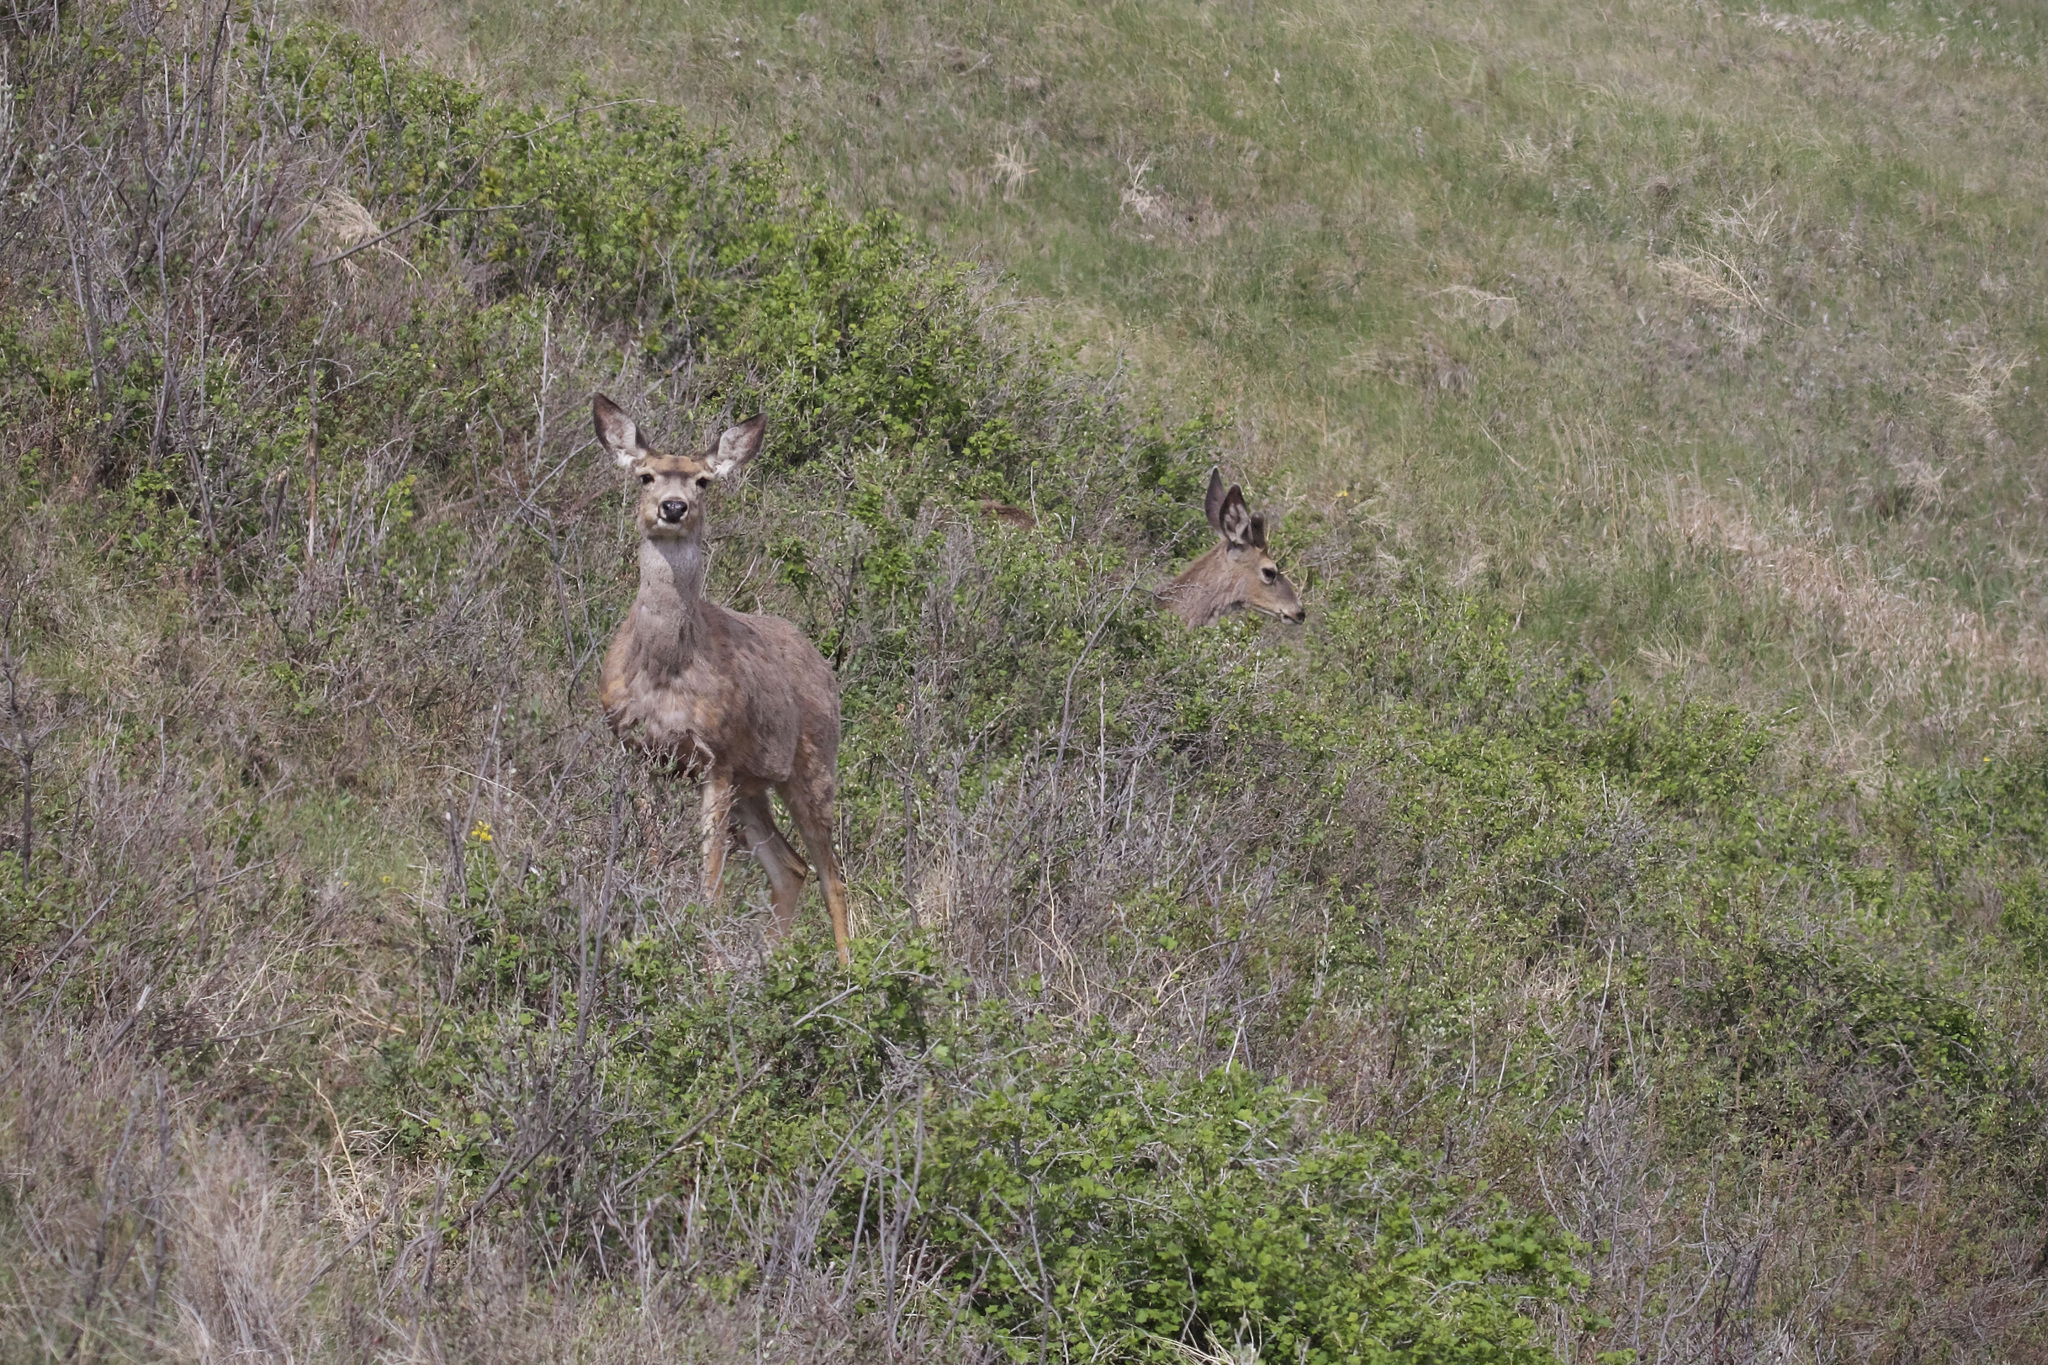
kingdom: Animalia
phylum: Chordata
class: Mammalia
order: Artiodactyla
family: Cervidae
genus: Odocoileus
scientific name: Odocoileus hemionus
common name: Mule deer
